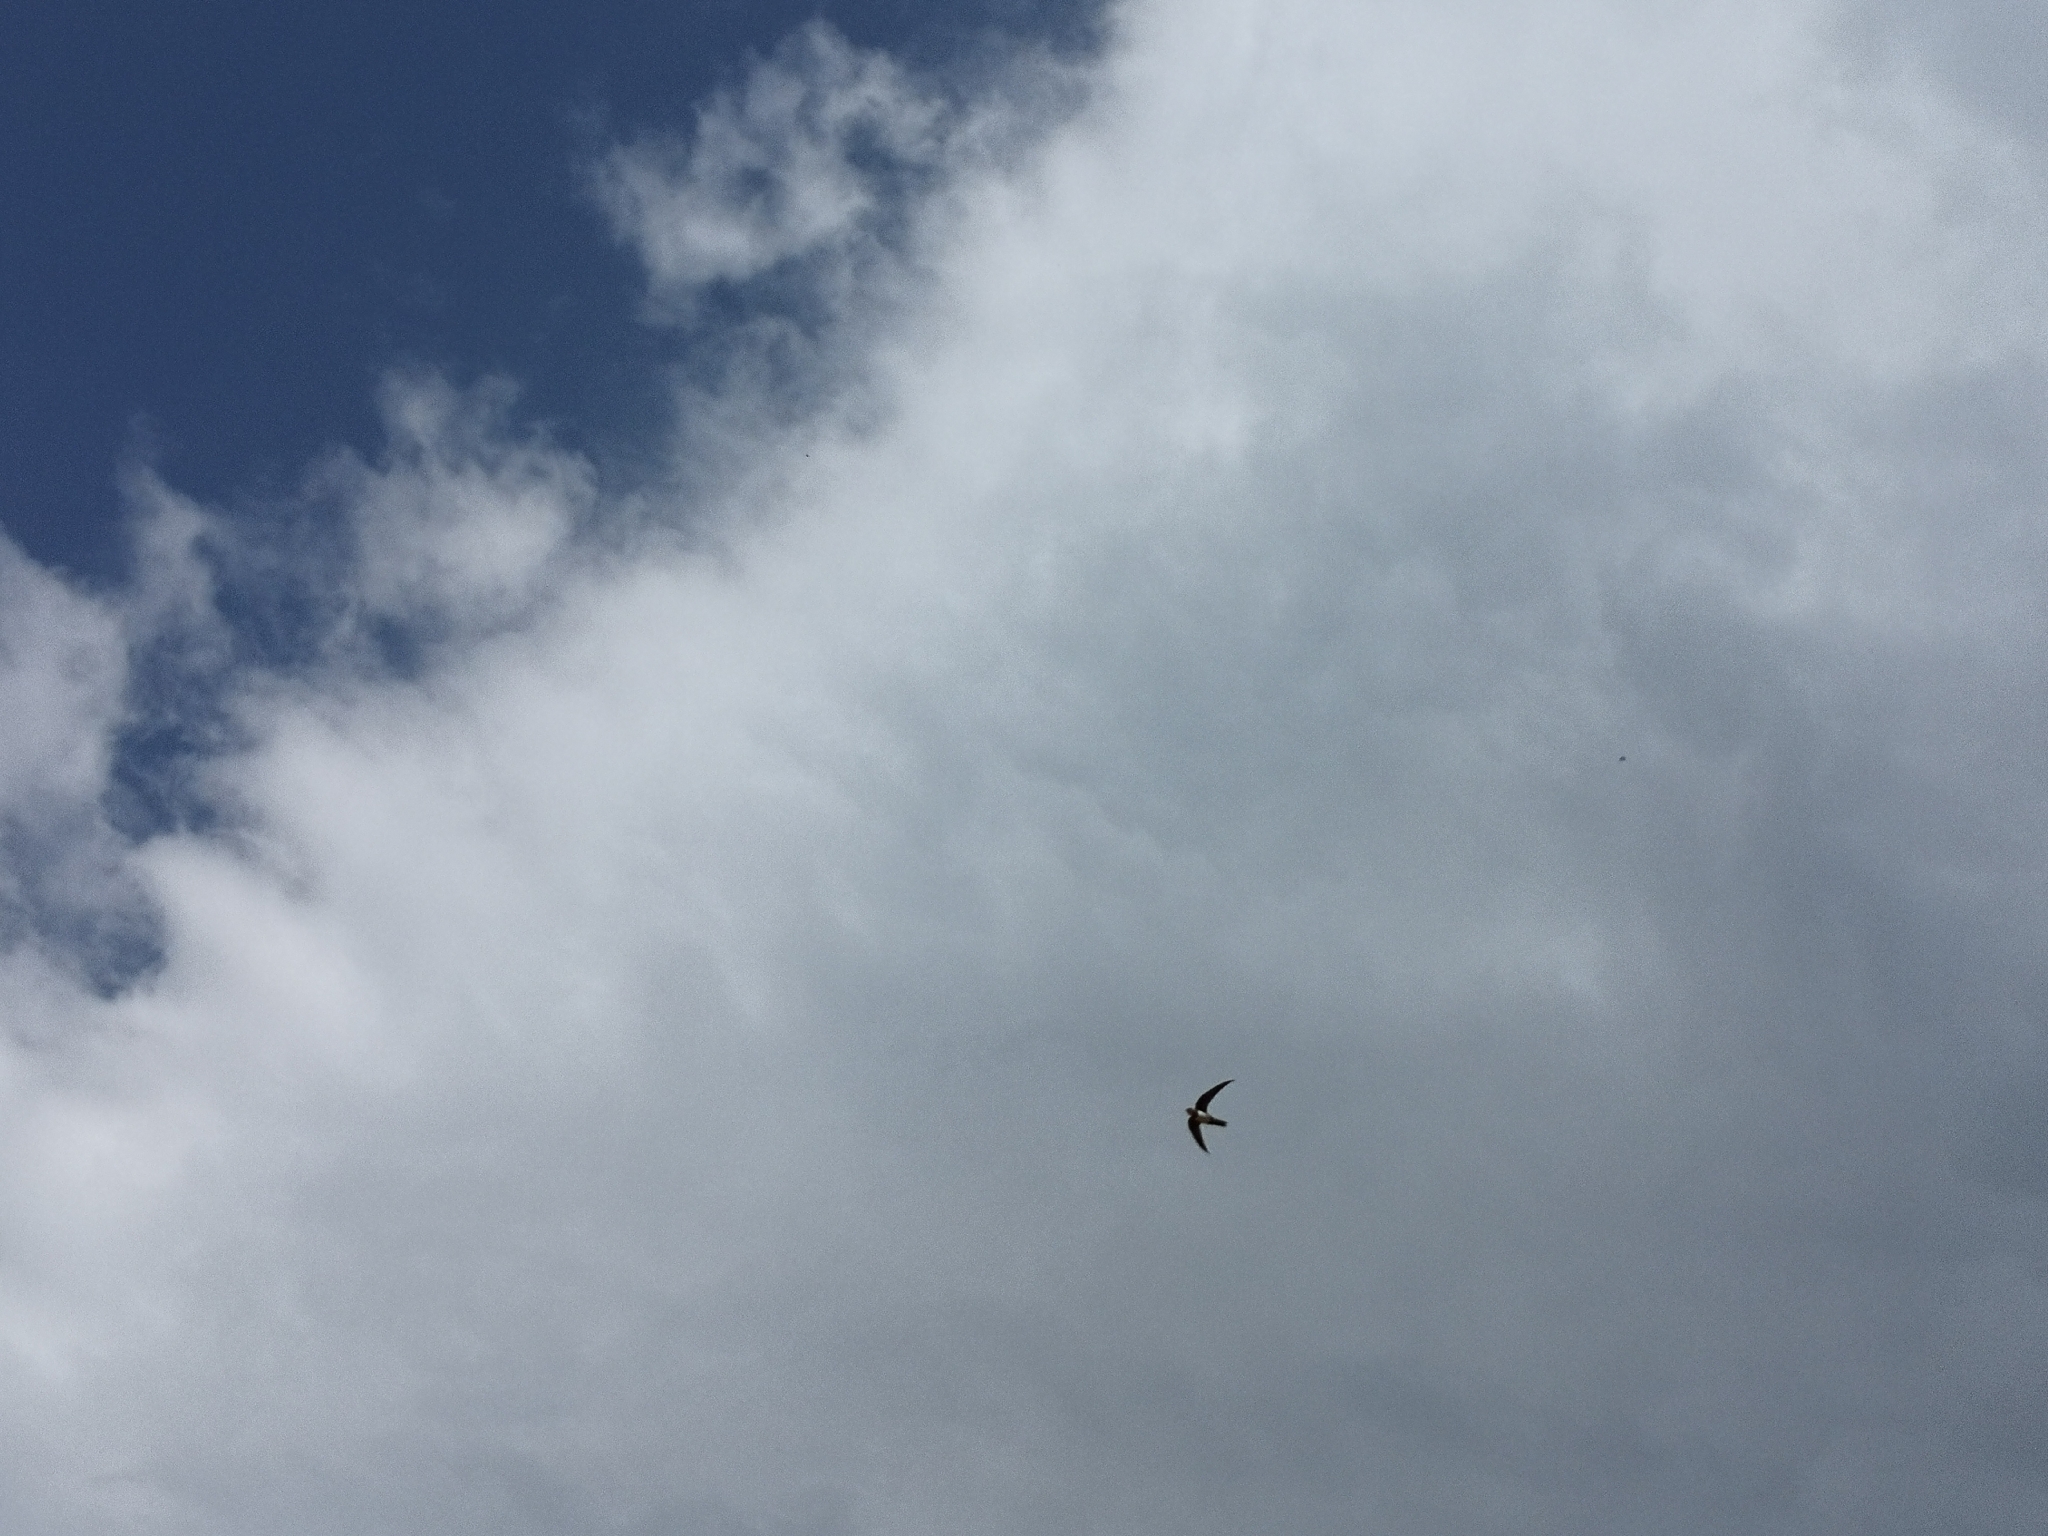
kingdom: Animalia
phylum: Chordata
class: Aves
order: Apodiformes
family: Apodidae
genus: Tachymarptis
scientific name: Tachymarptis melba
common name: Alpine swift
